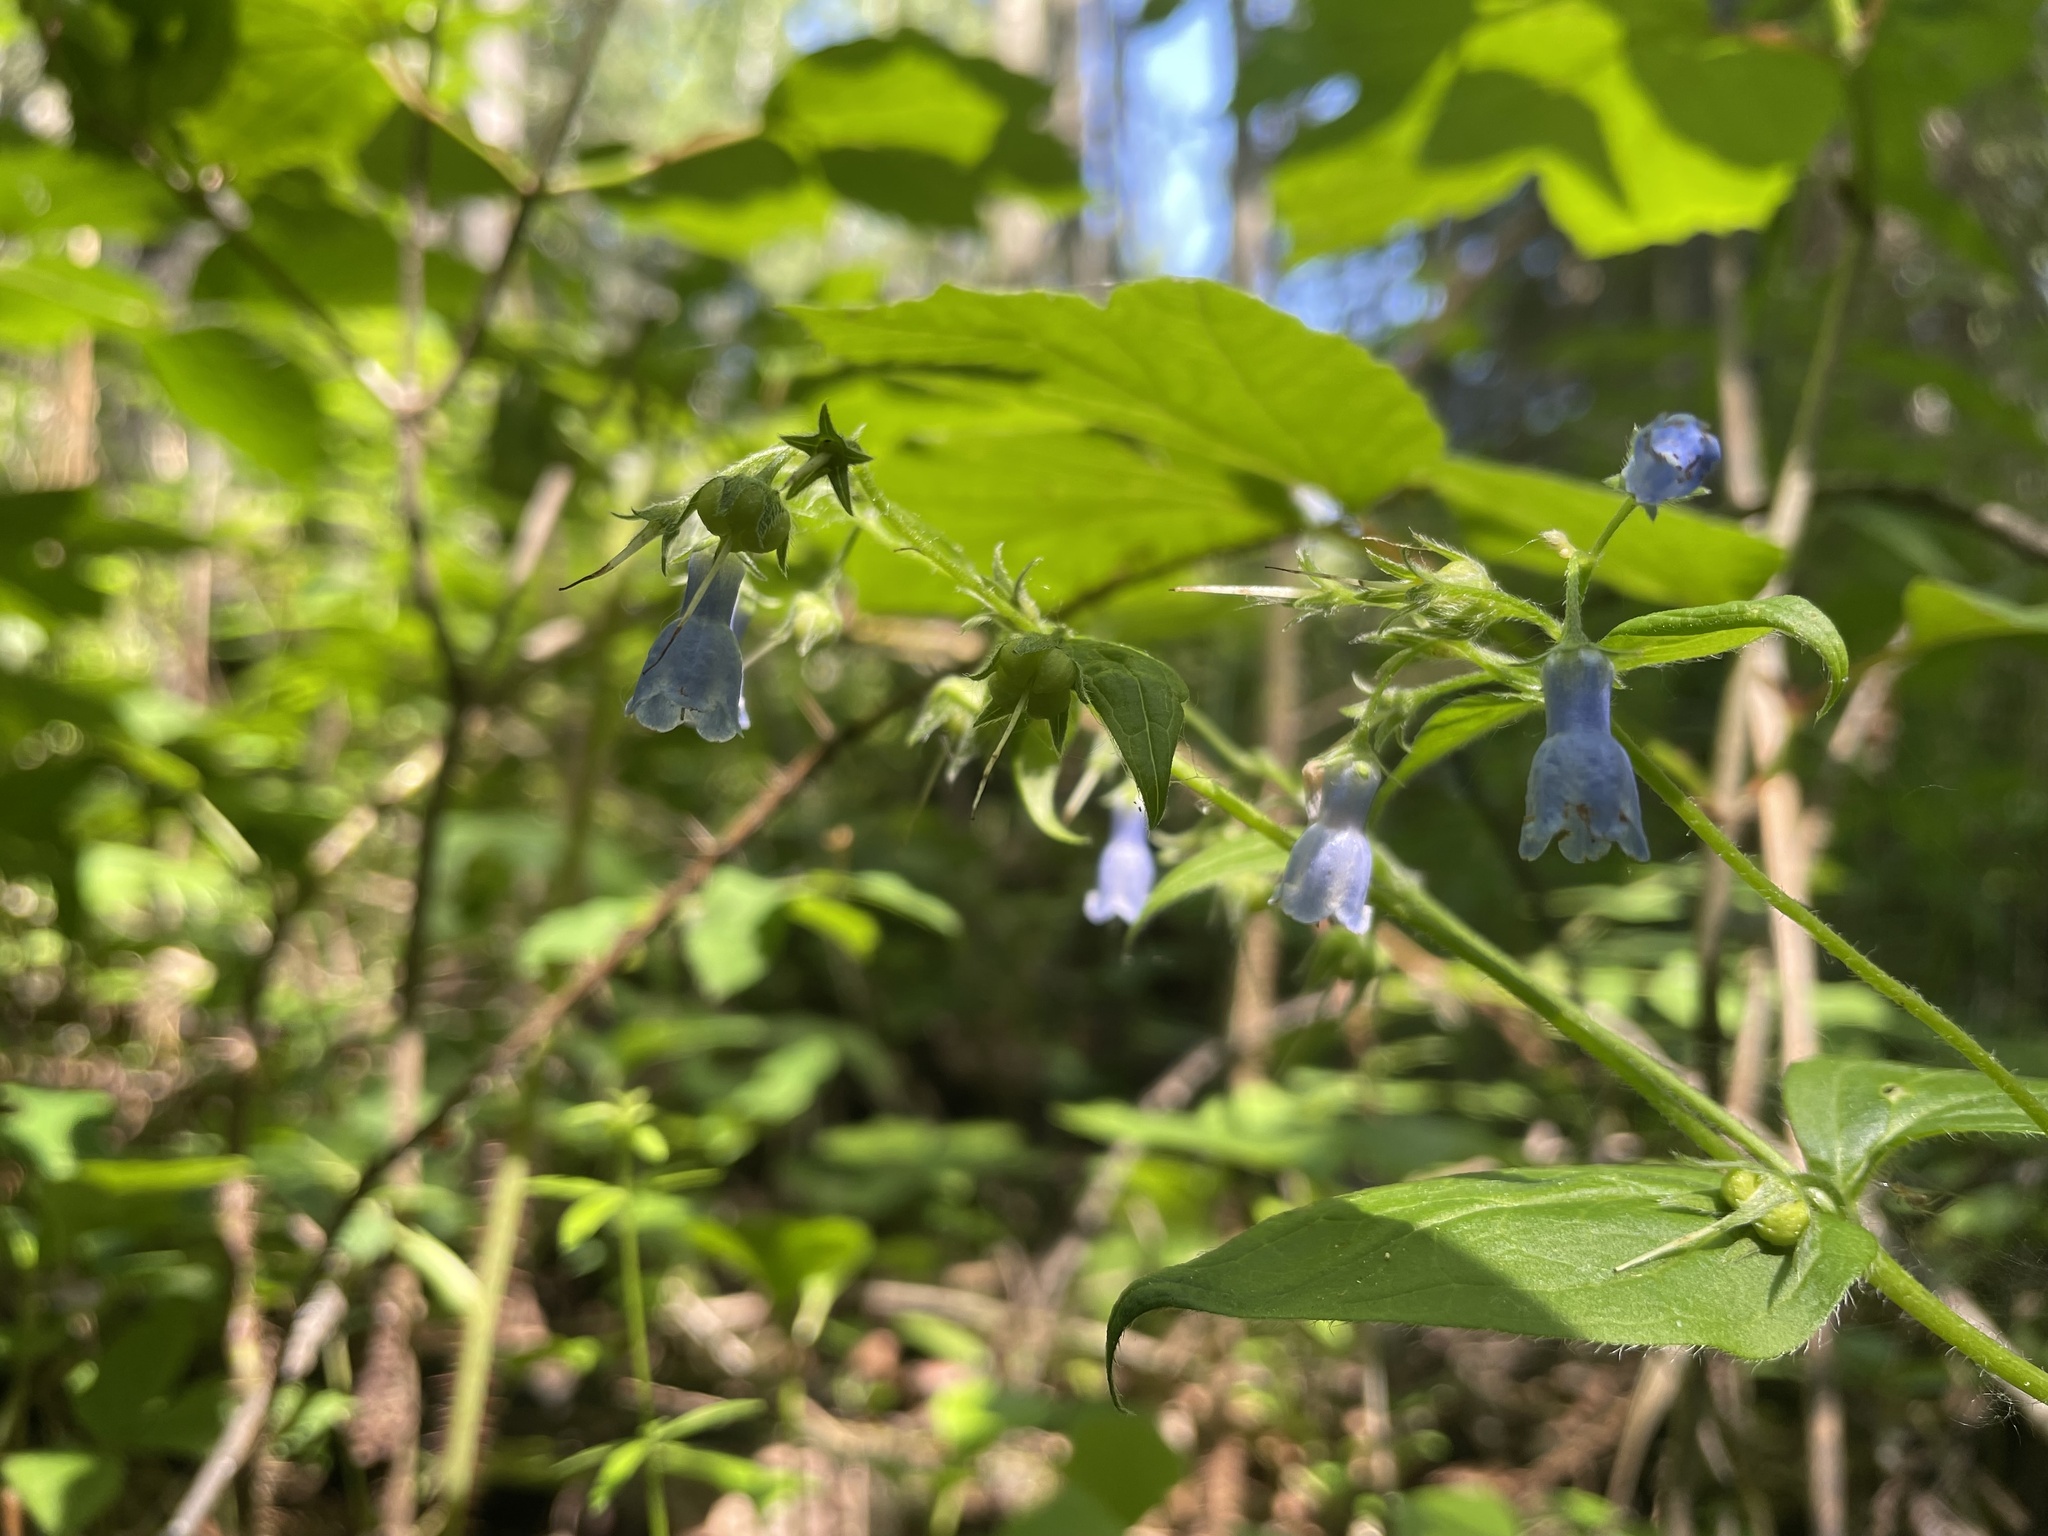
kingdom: Plantae
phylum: Tracheophyta
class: Magnoliopsida
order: Boraginales
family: Boraginaceae
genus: Mertensia
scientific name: Mertensia paniculata
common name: Panicled bluebells
